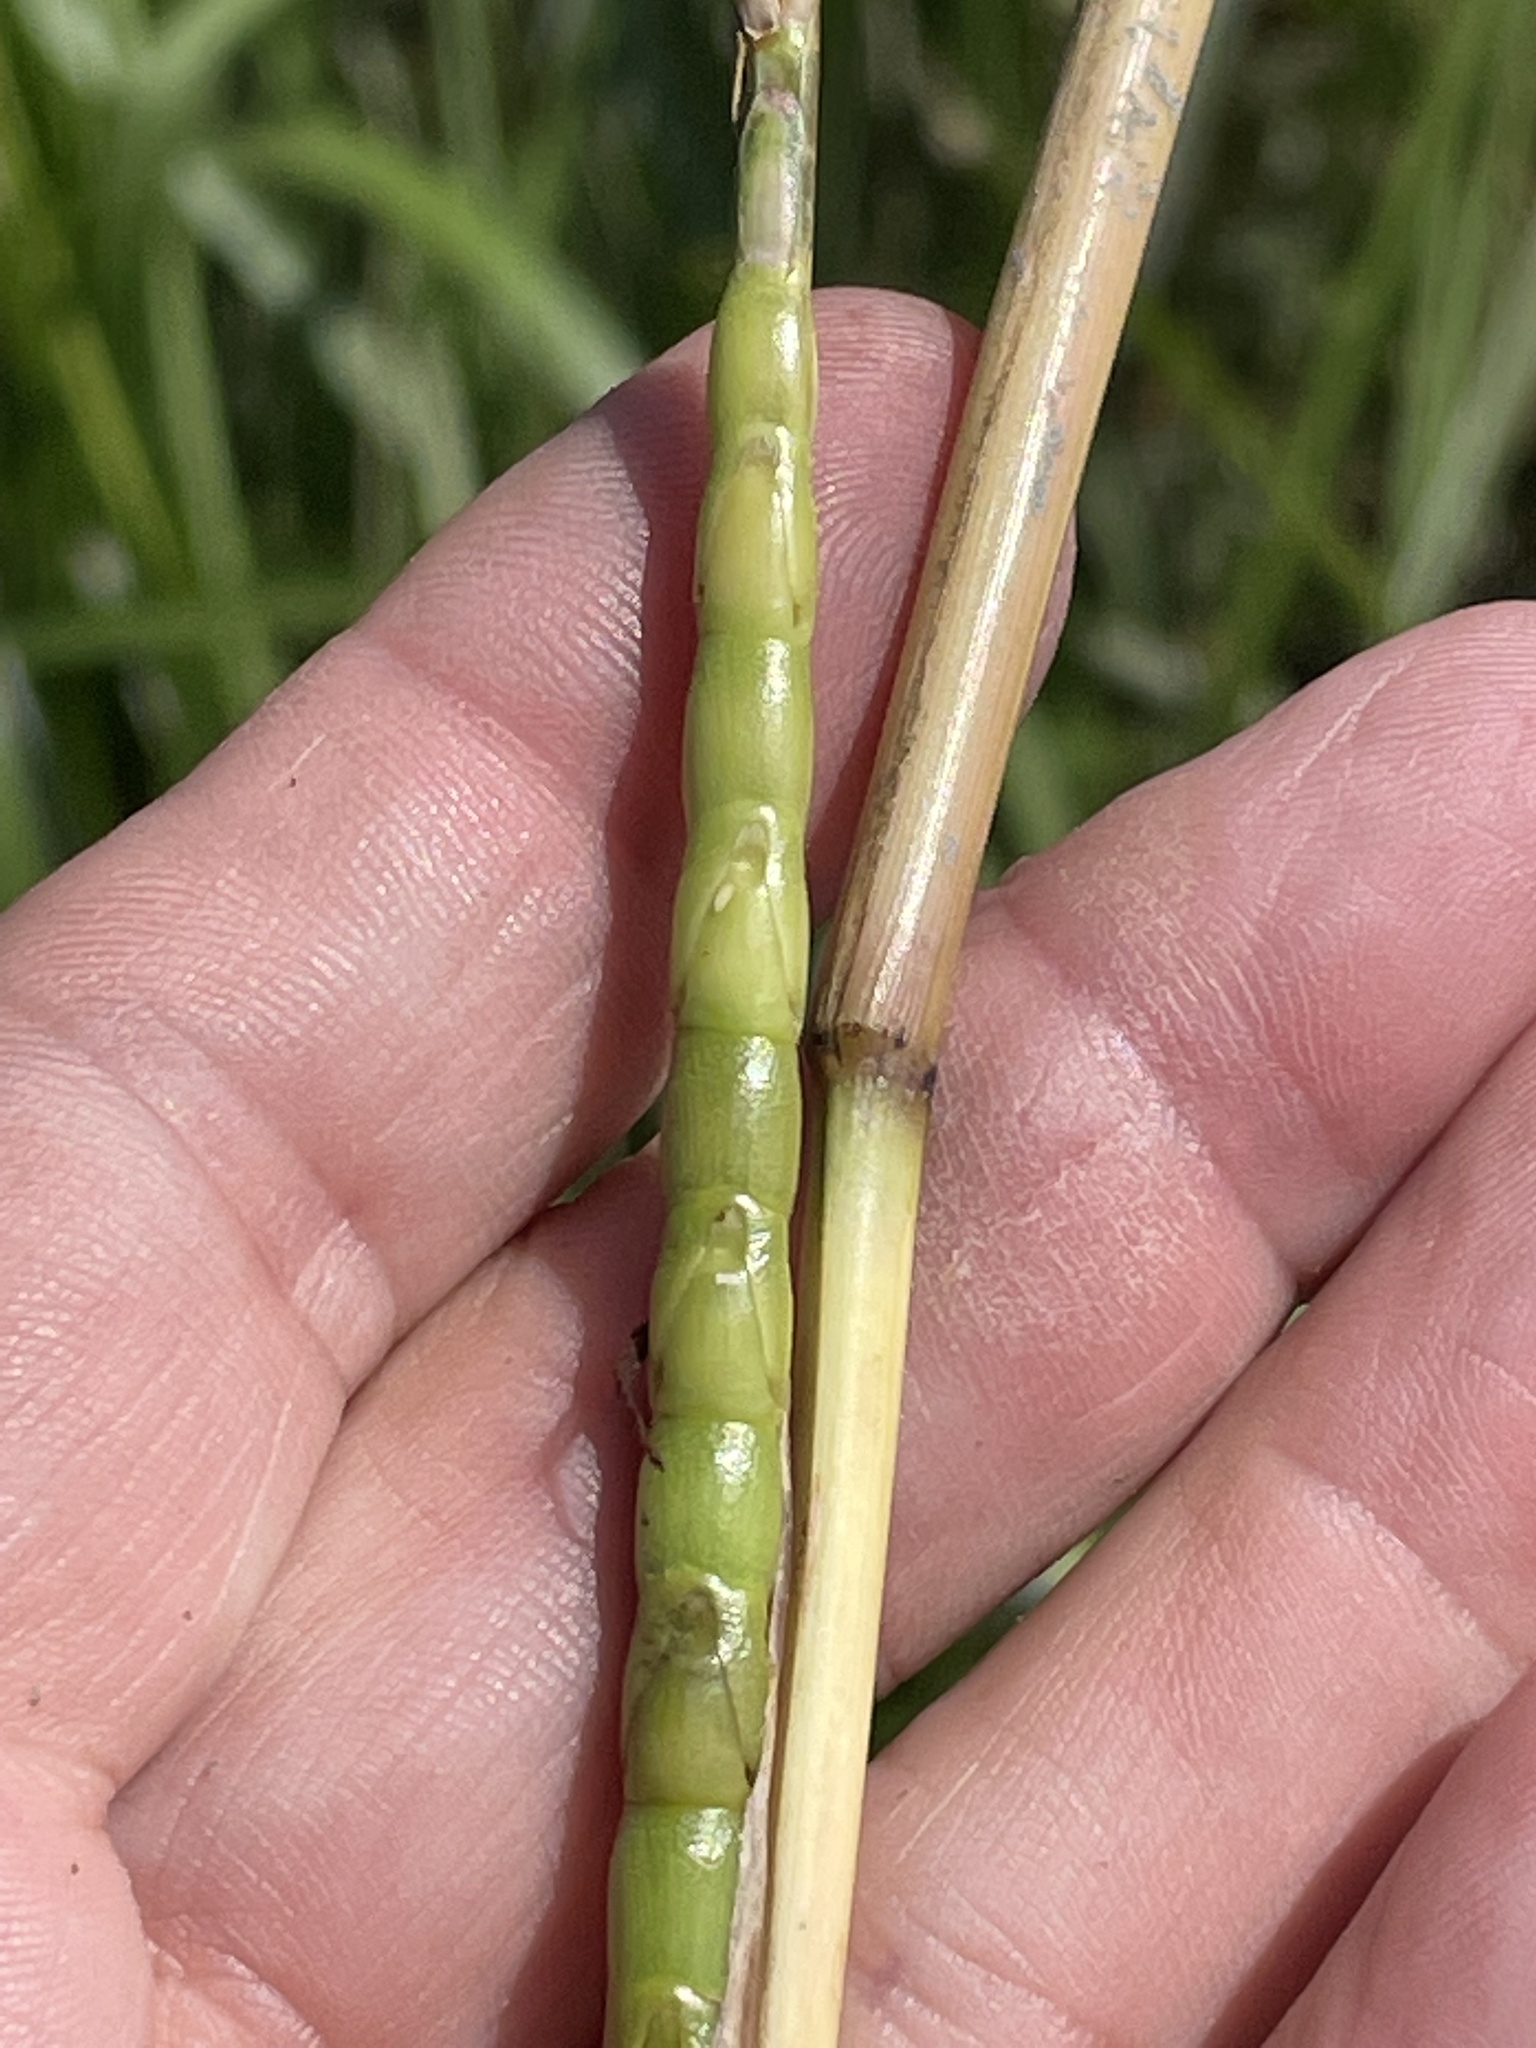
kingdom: Plantae
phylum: Tracheophyta
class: Liliopsida
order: Poales
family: Poaceae
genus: Tripsacum
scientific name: Tripsacum dactyloides
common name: Buffalo-grass
